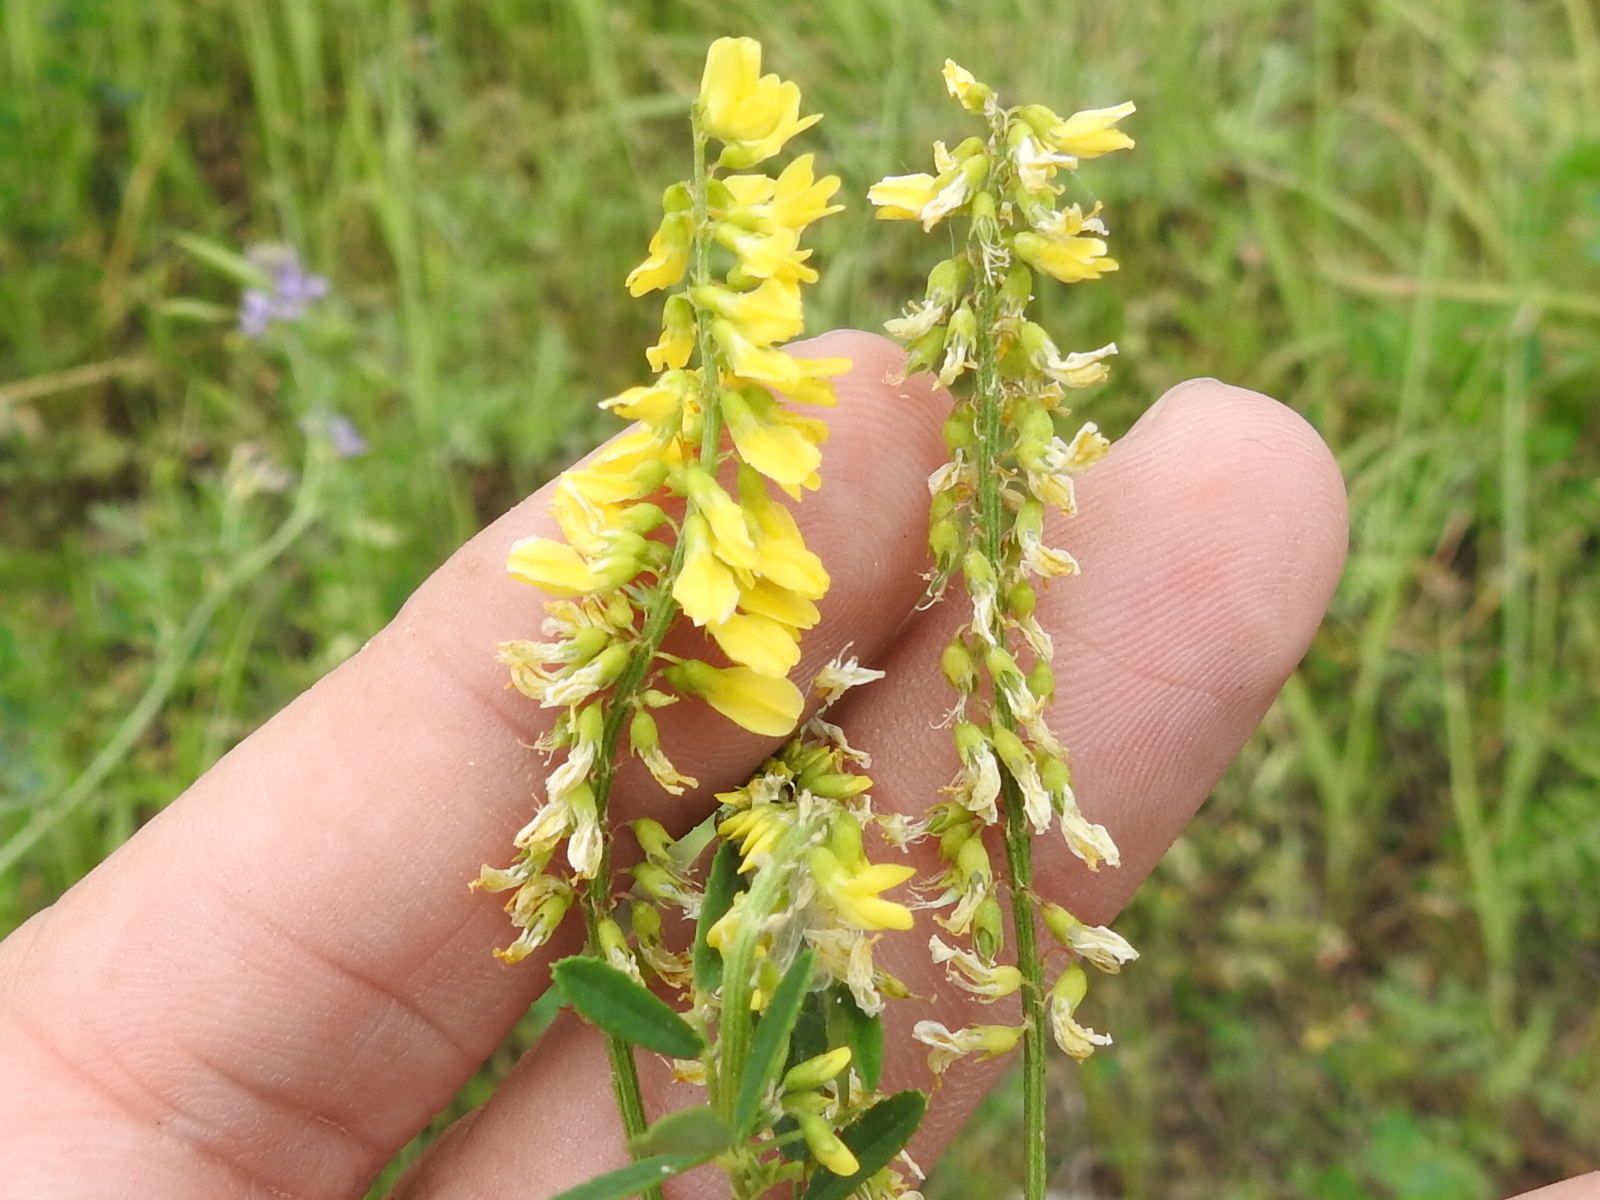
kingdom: Plantae
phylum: Tracheophyta
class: Magnoliopsida
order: Fabales
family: Fabaceae
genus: Melilotus
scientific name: Melilotus officinalis
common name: Sweetclover
